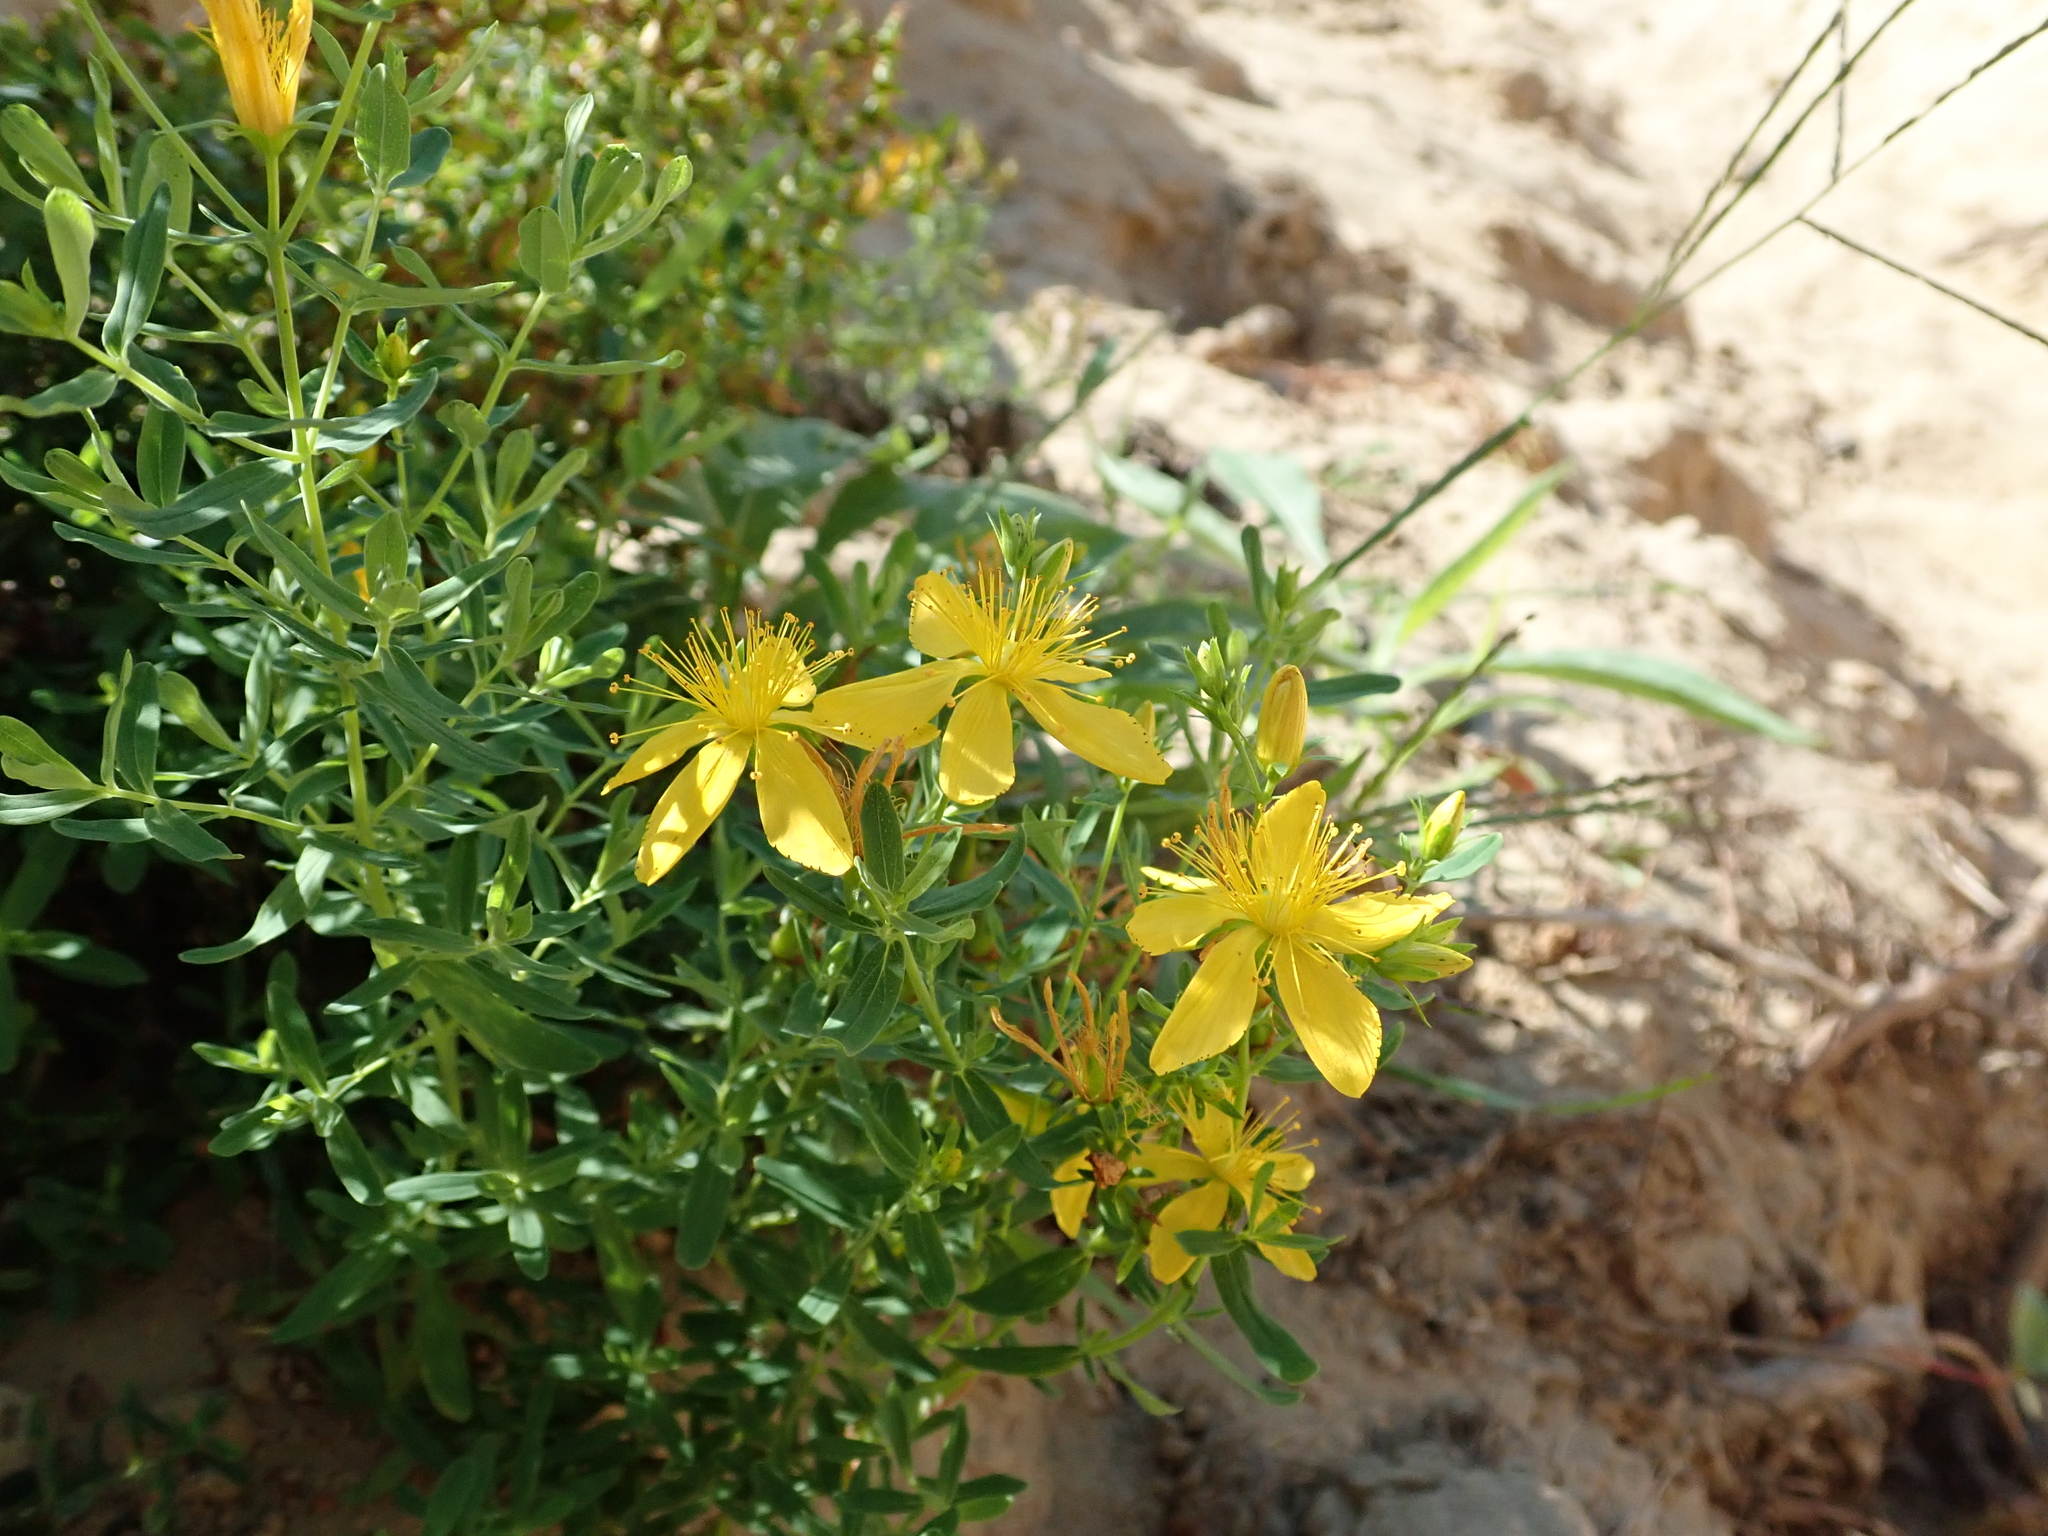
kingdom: Plantae
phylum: Tracheophyta
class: Magnoliopsida
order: Malpighiales
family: Hypericaceae
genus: Hypericum
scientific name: Hypericum perforatum
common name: Common st. johnswort
